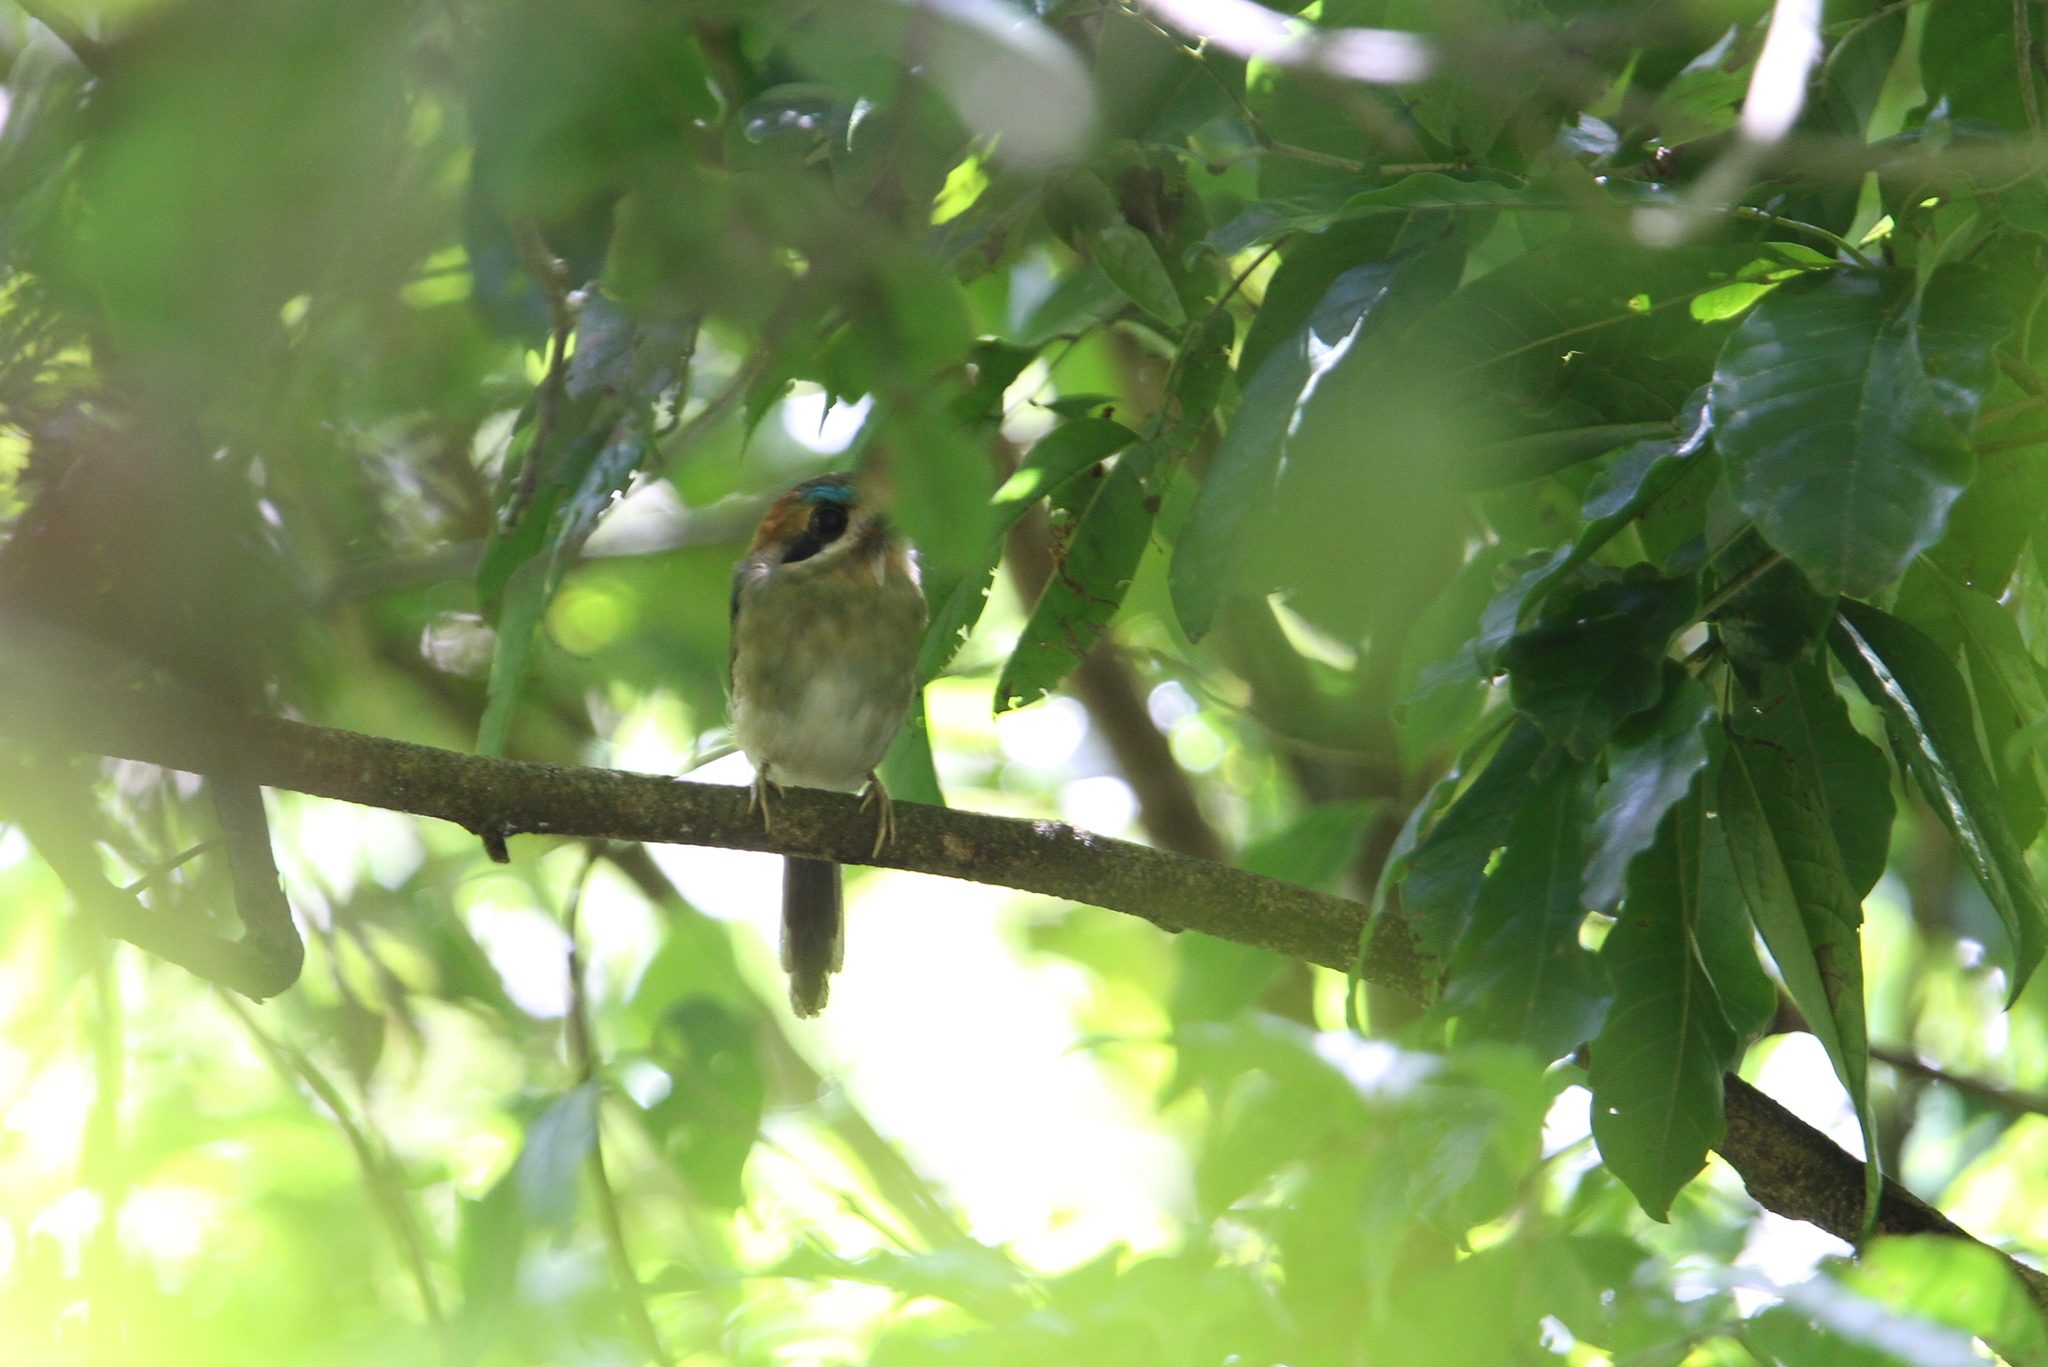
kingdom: Animalia
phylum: Chordata
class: Aves
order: Coraciiformes
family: Momotidae
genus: Hylomanes
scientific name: Hylomanes momotula
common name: Tody motmot
